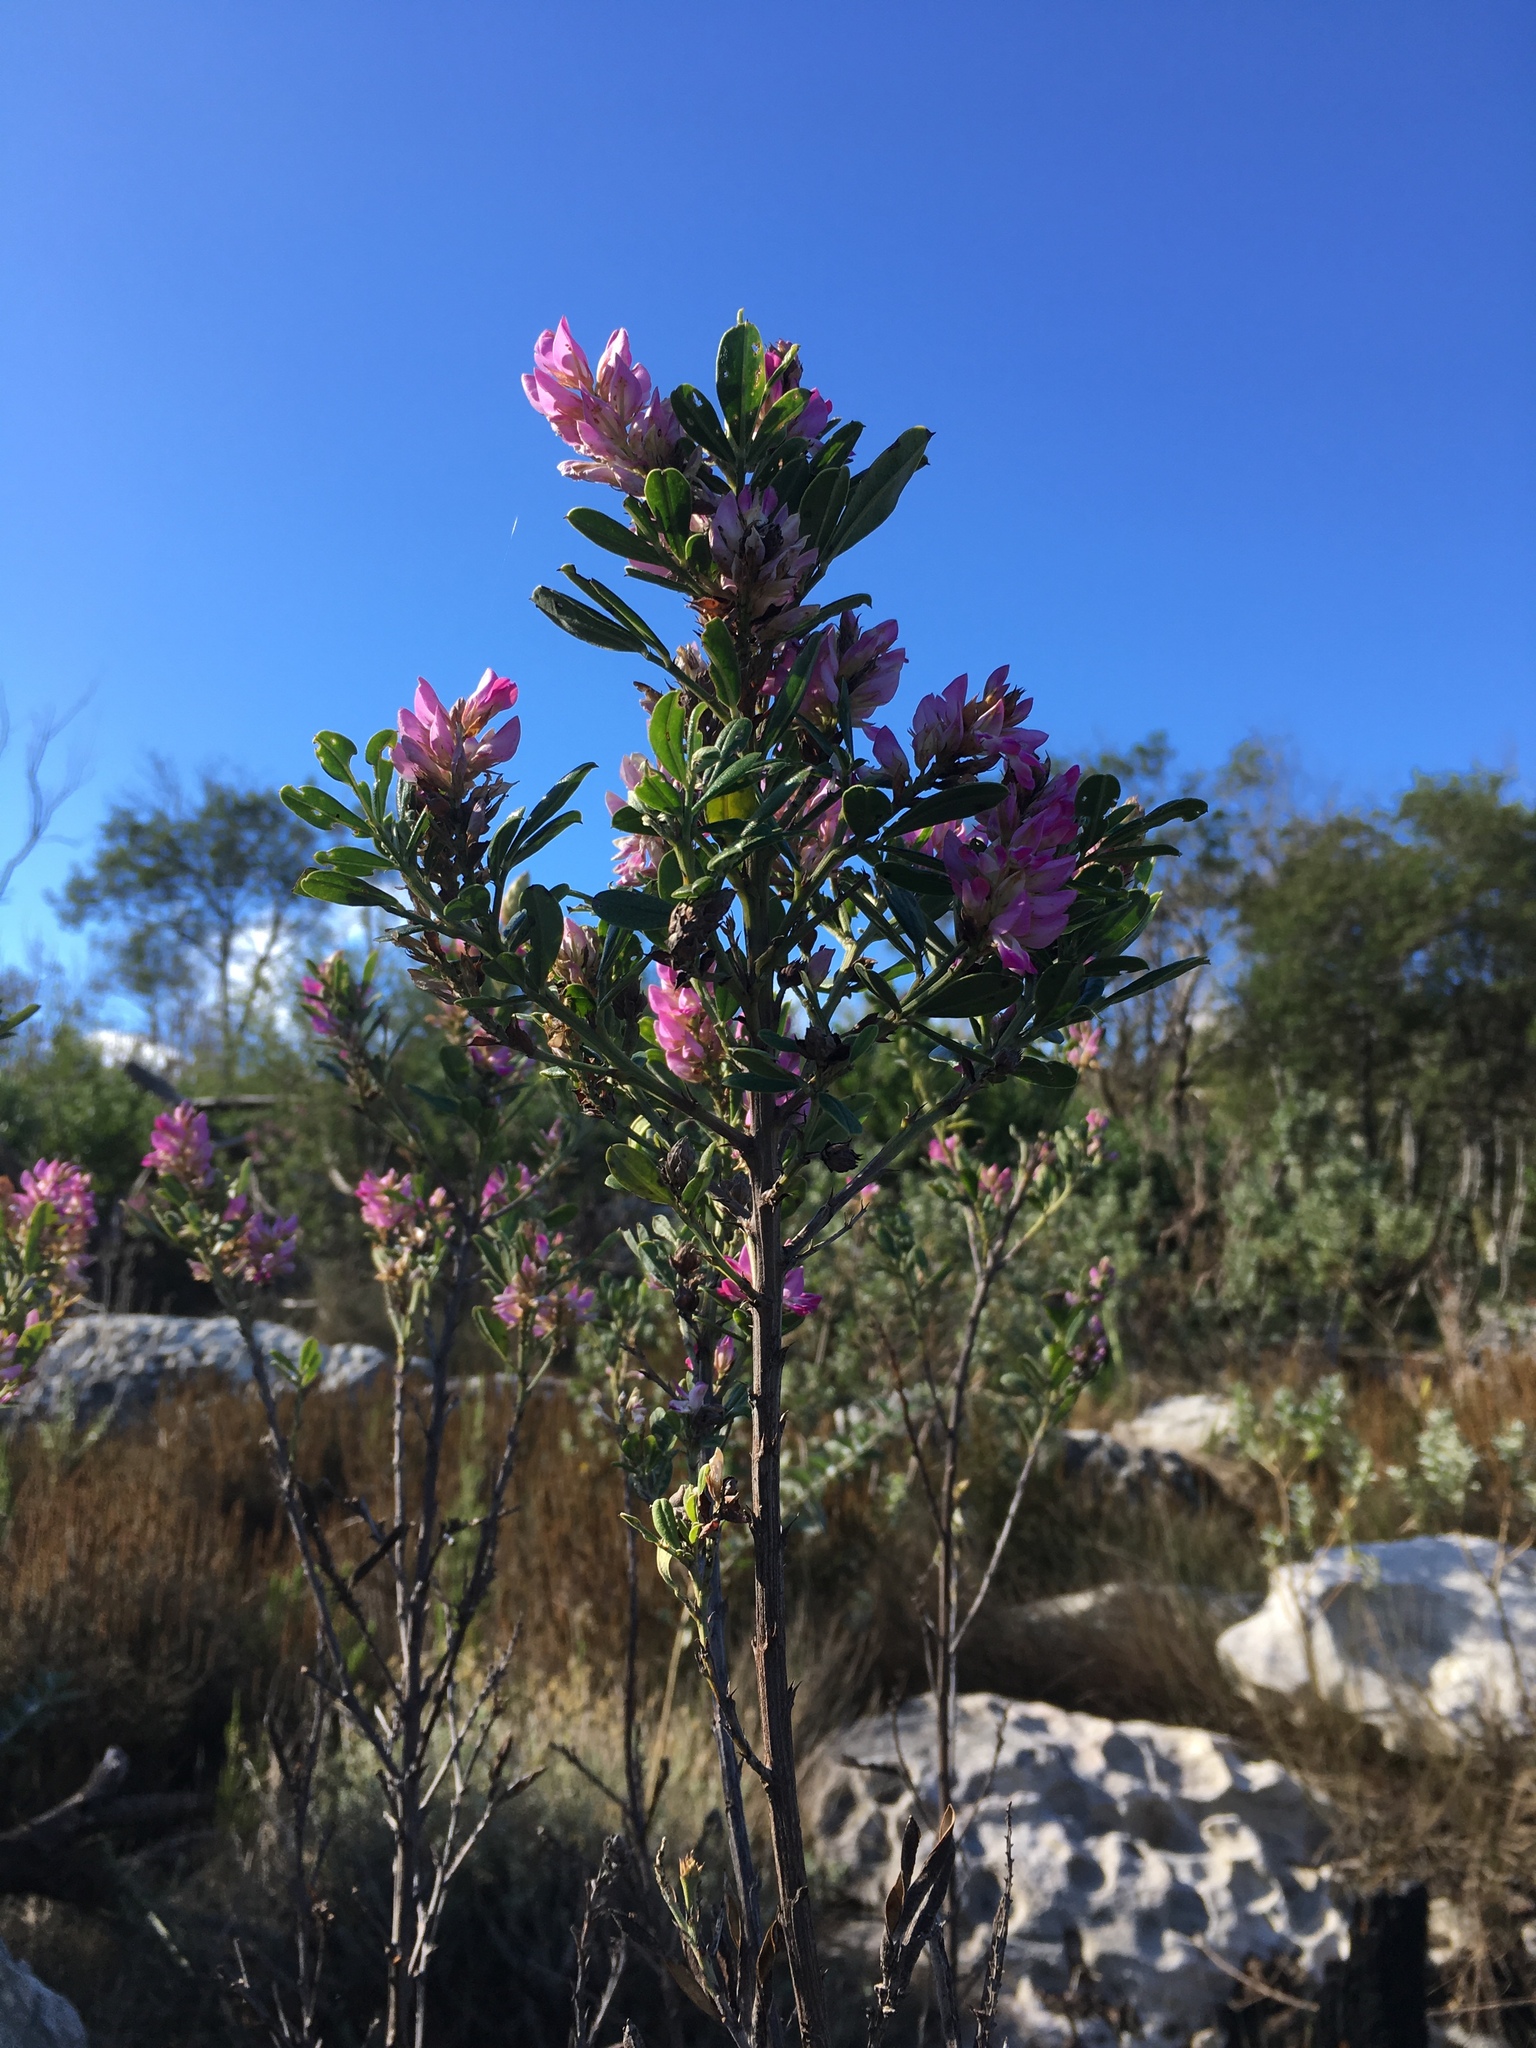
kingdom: Plantae
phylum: Tracheophyta
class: Magnoliopsida
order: Fabales
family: Fabaceae
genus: Indigofera
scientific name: Indigofera cytisoides
